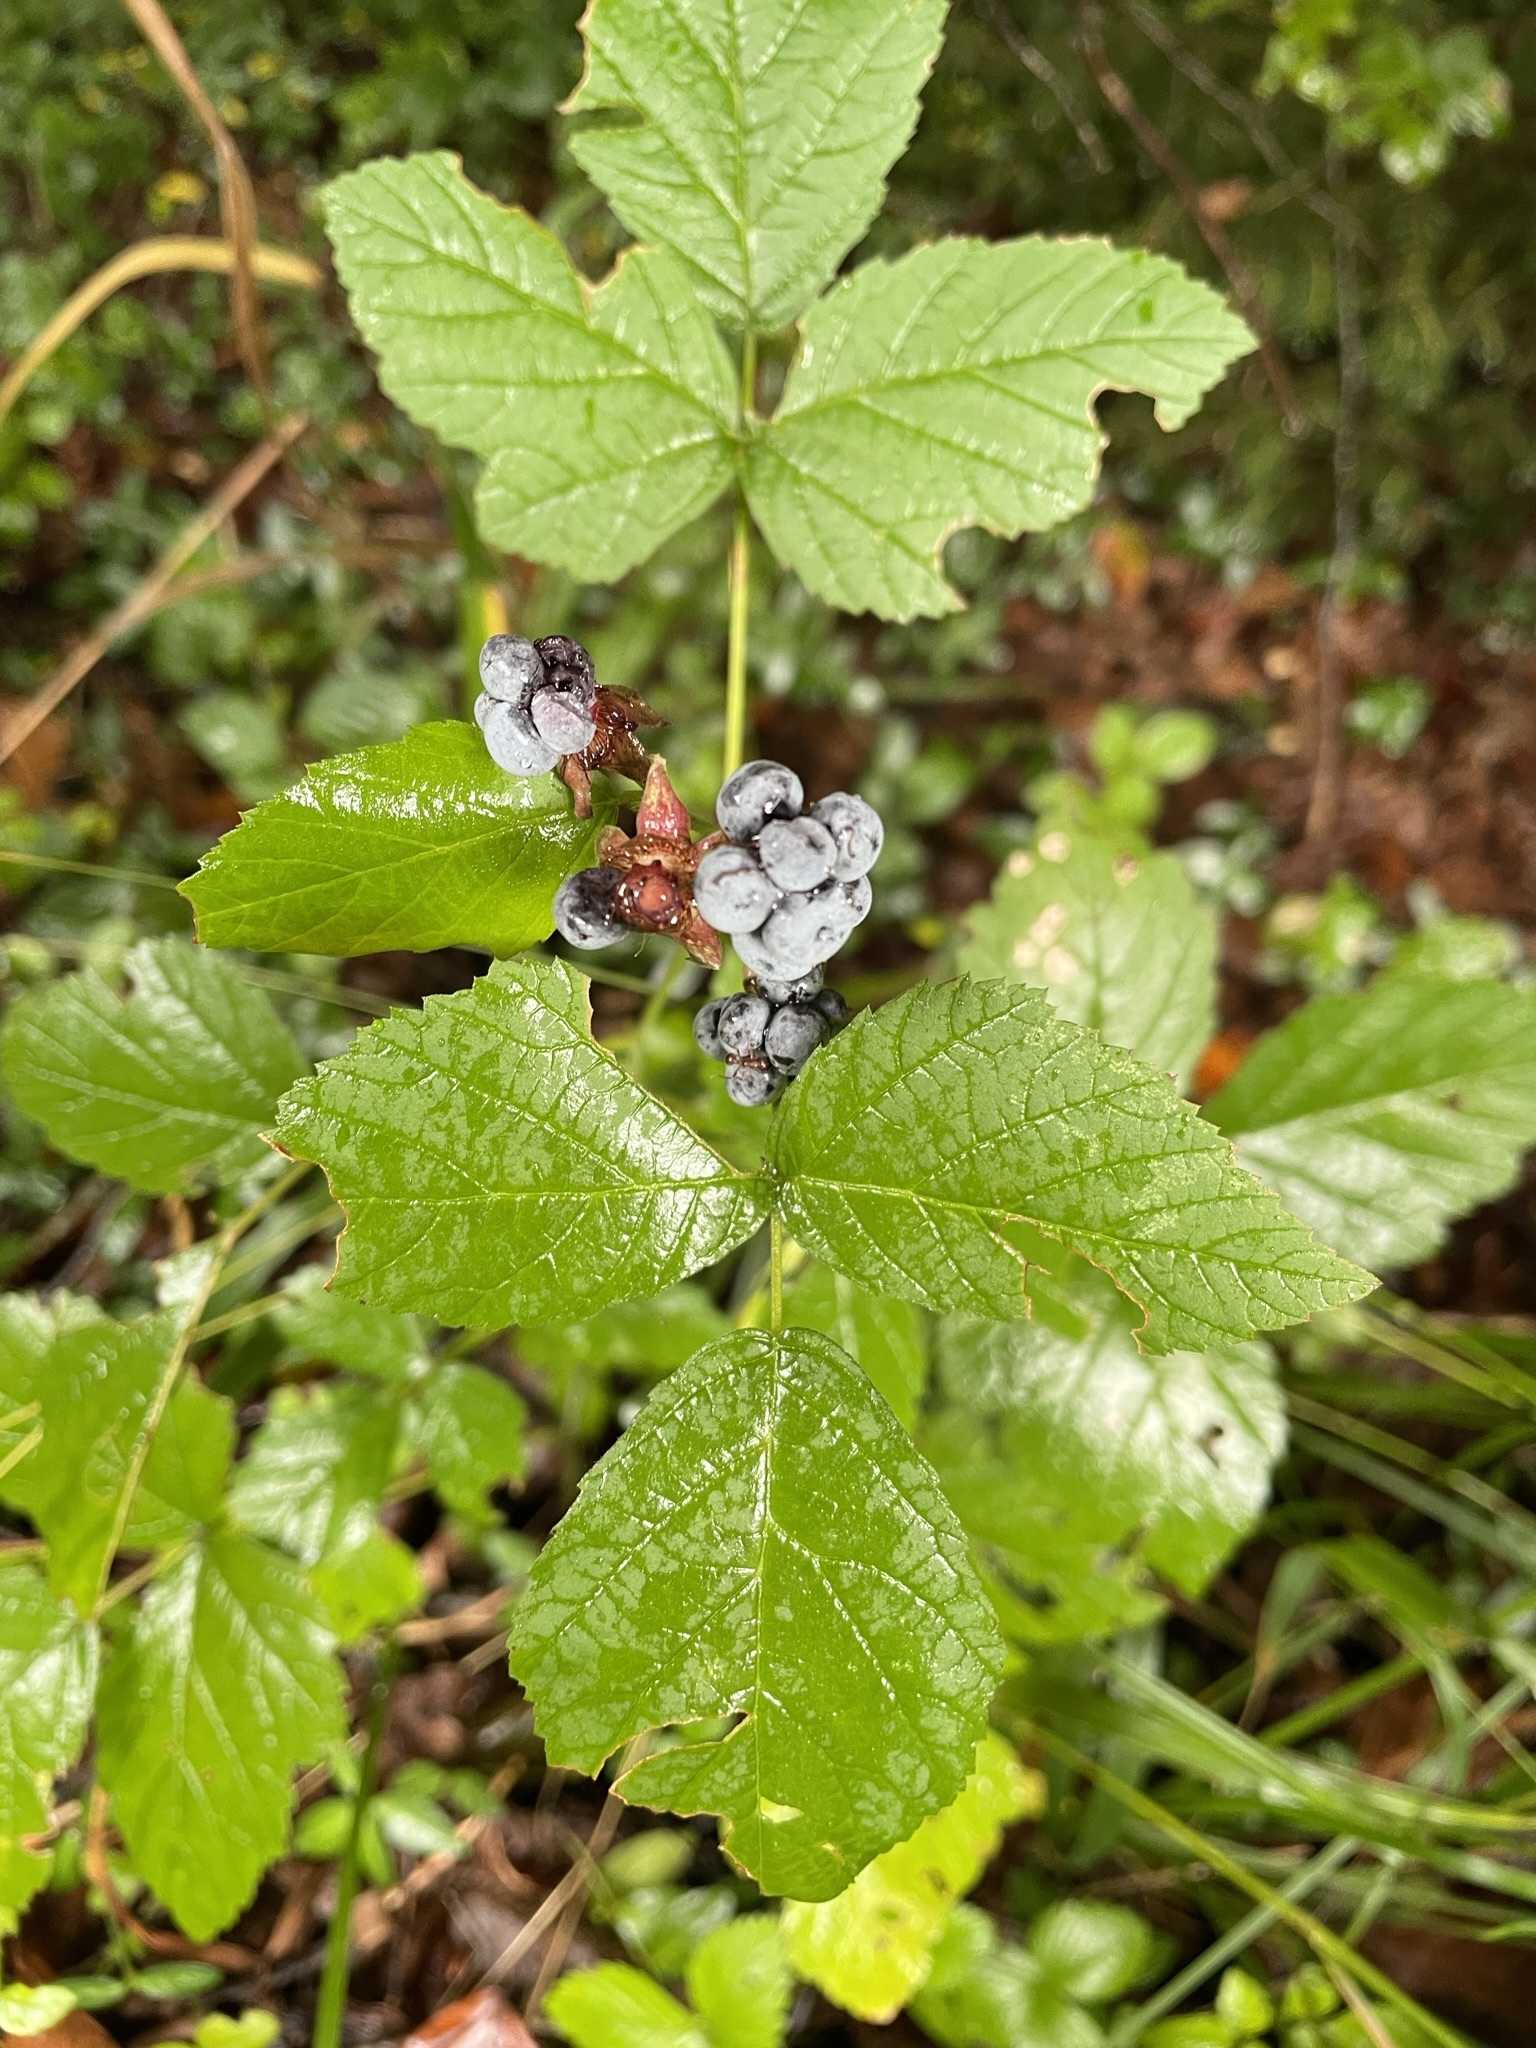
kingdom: Plantae
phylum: Tracheophyta
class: Magnoliopsida
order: Rosales
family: Rosaceae
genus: Rubus
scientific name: Rubus caesius
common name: Dewberry
